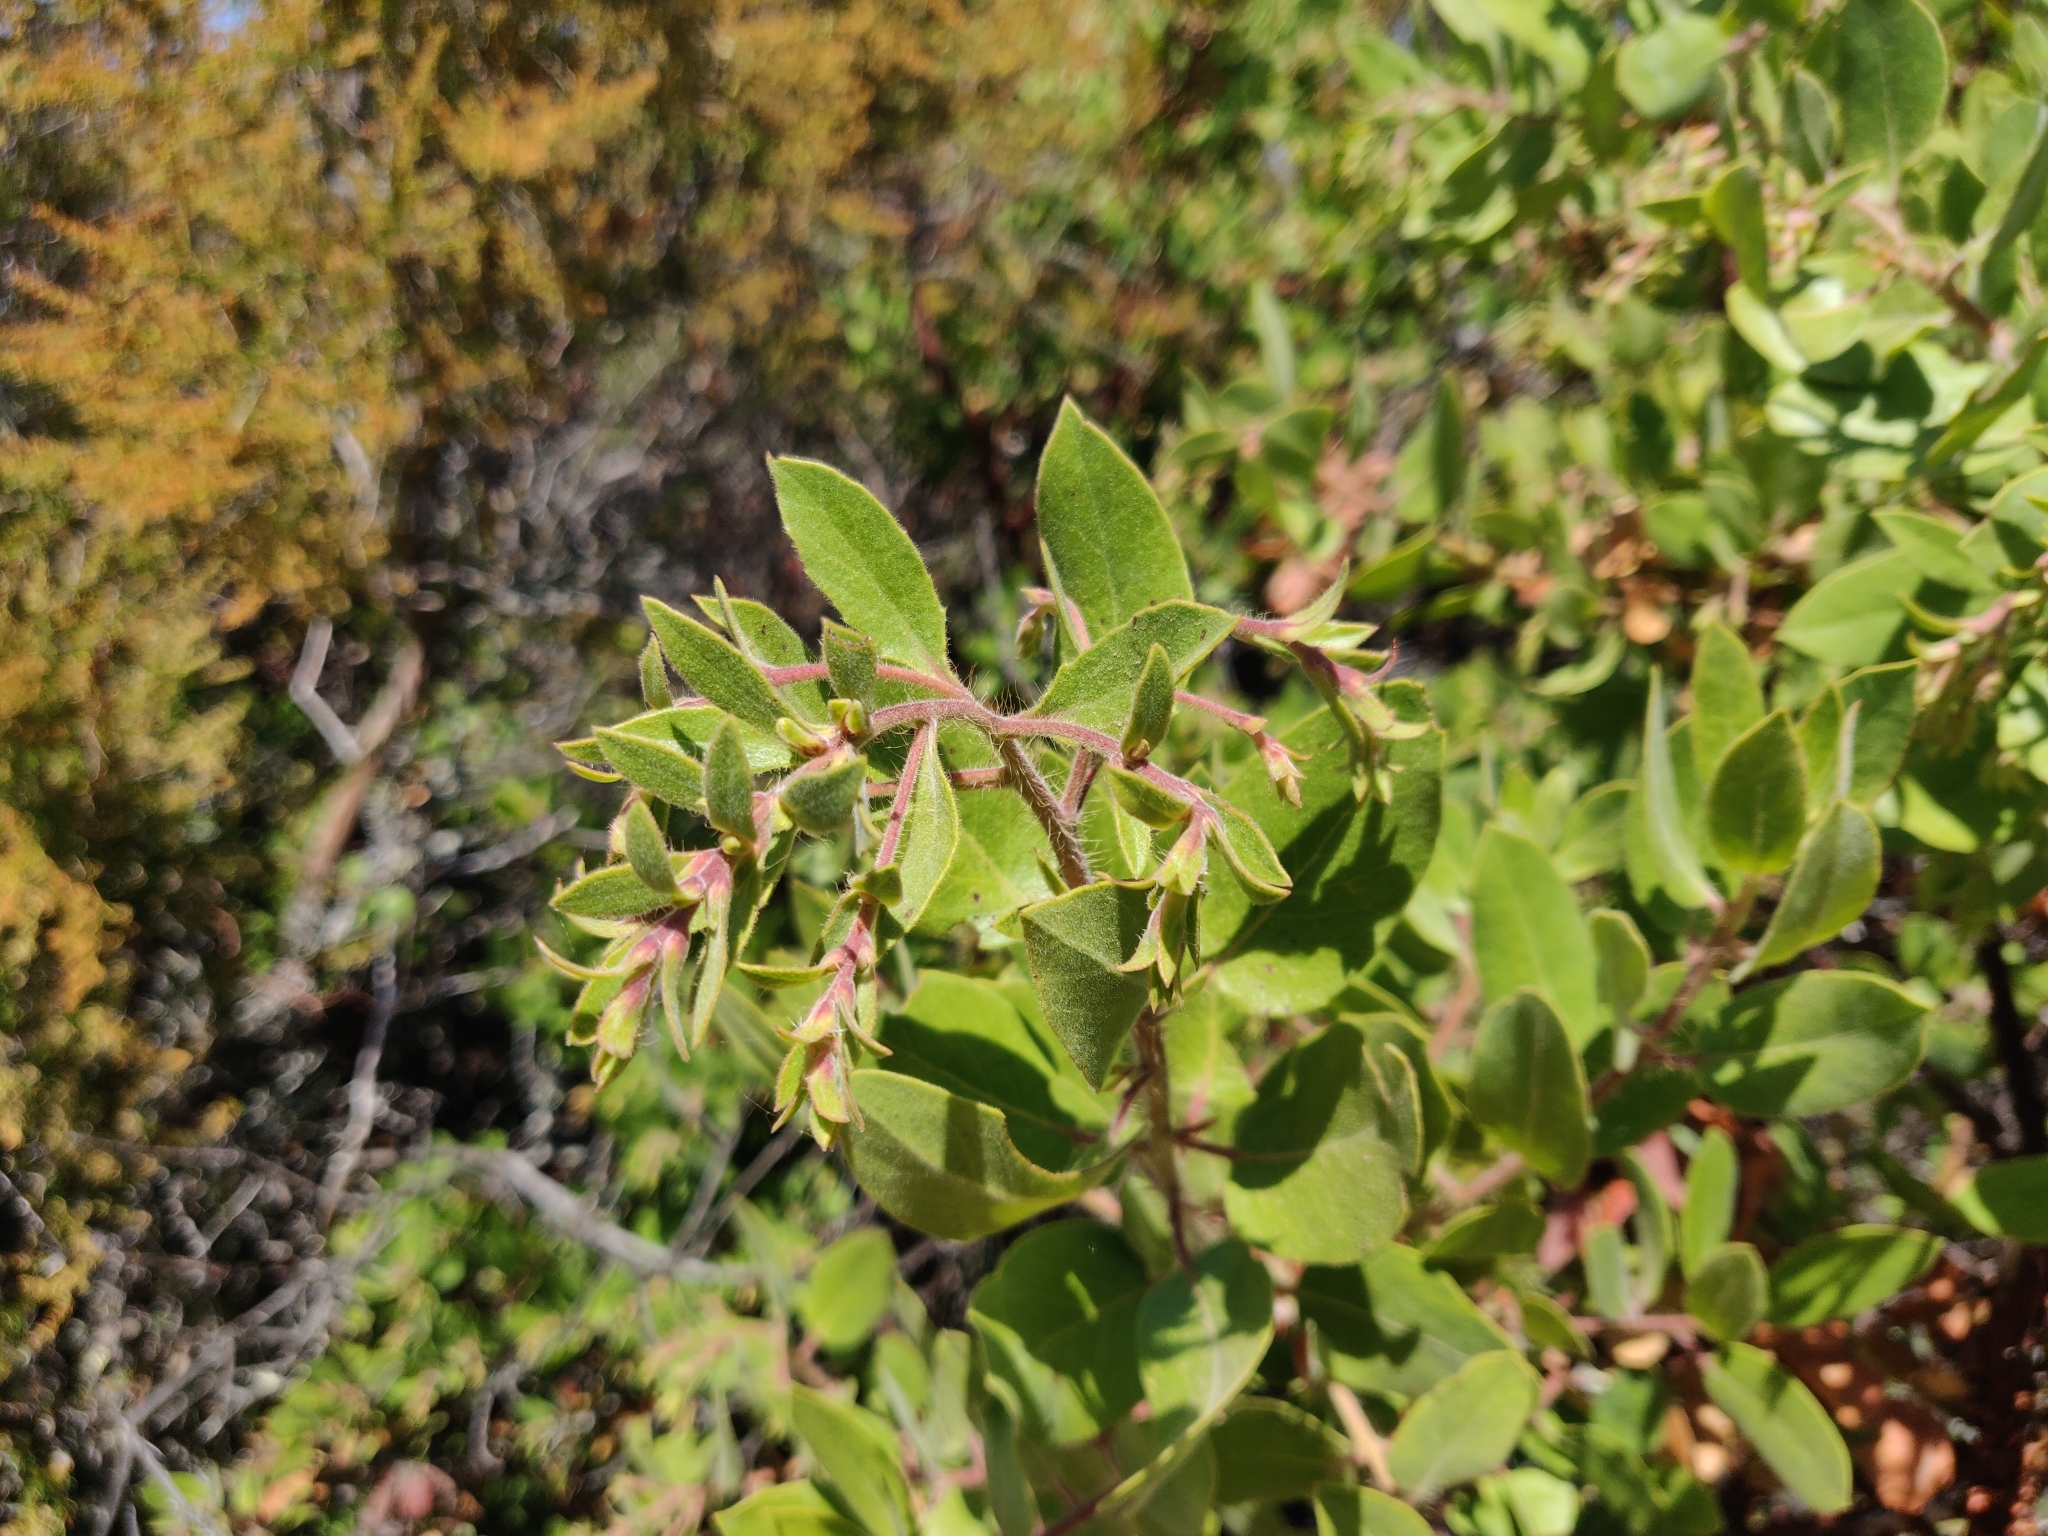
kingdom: Plantae
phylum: Tracheophyta
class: Magnoliopsida
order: Ericales
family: Ericaceae
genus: Arctostaphylos
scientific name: Arctostaphylos crustacea
